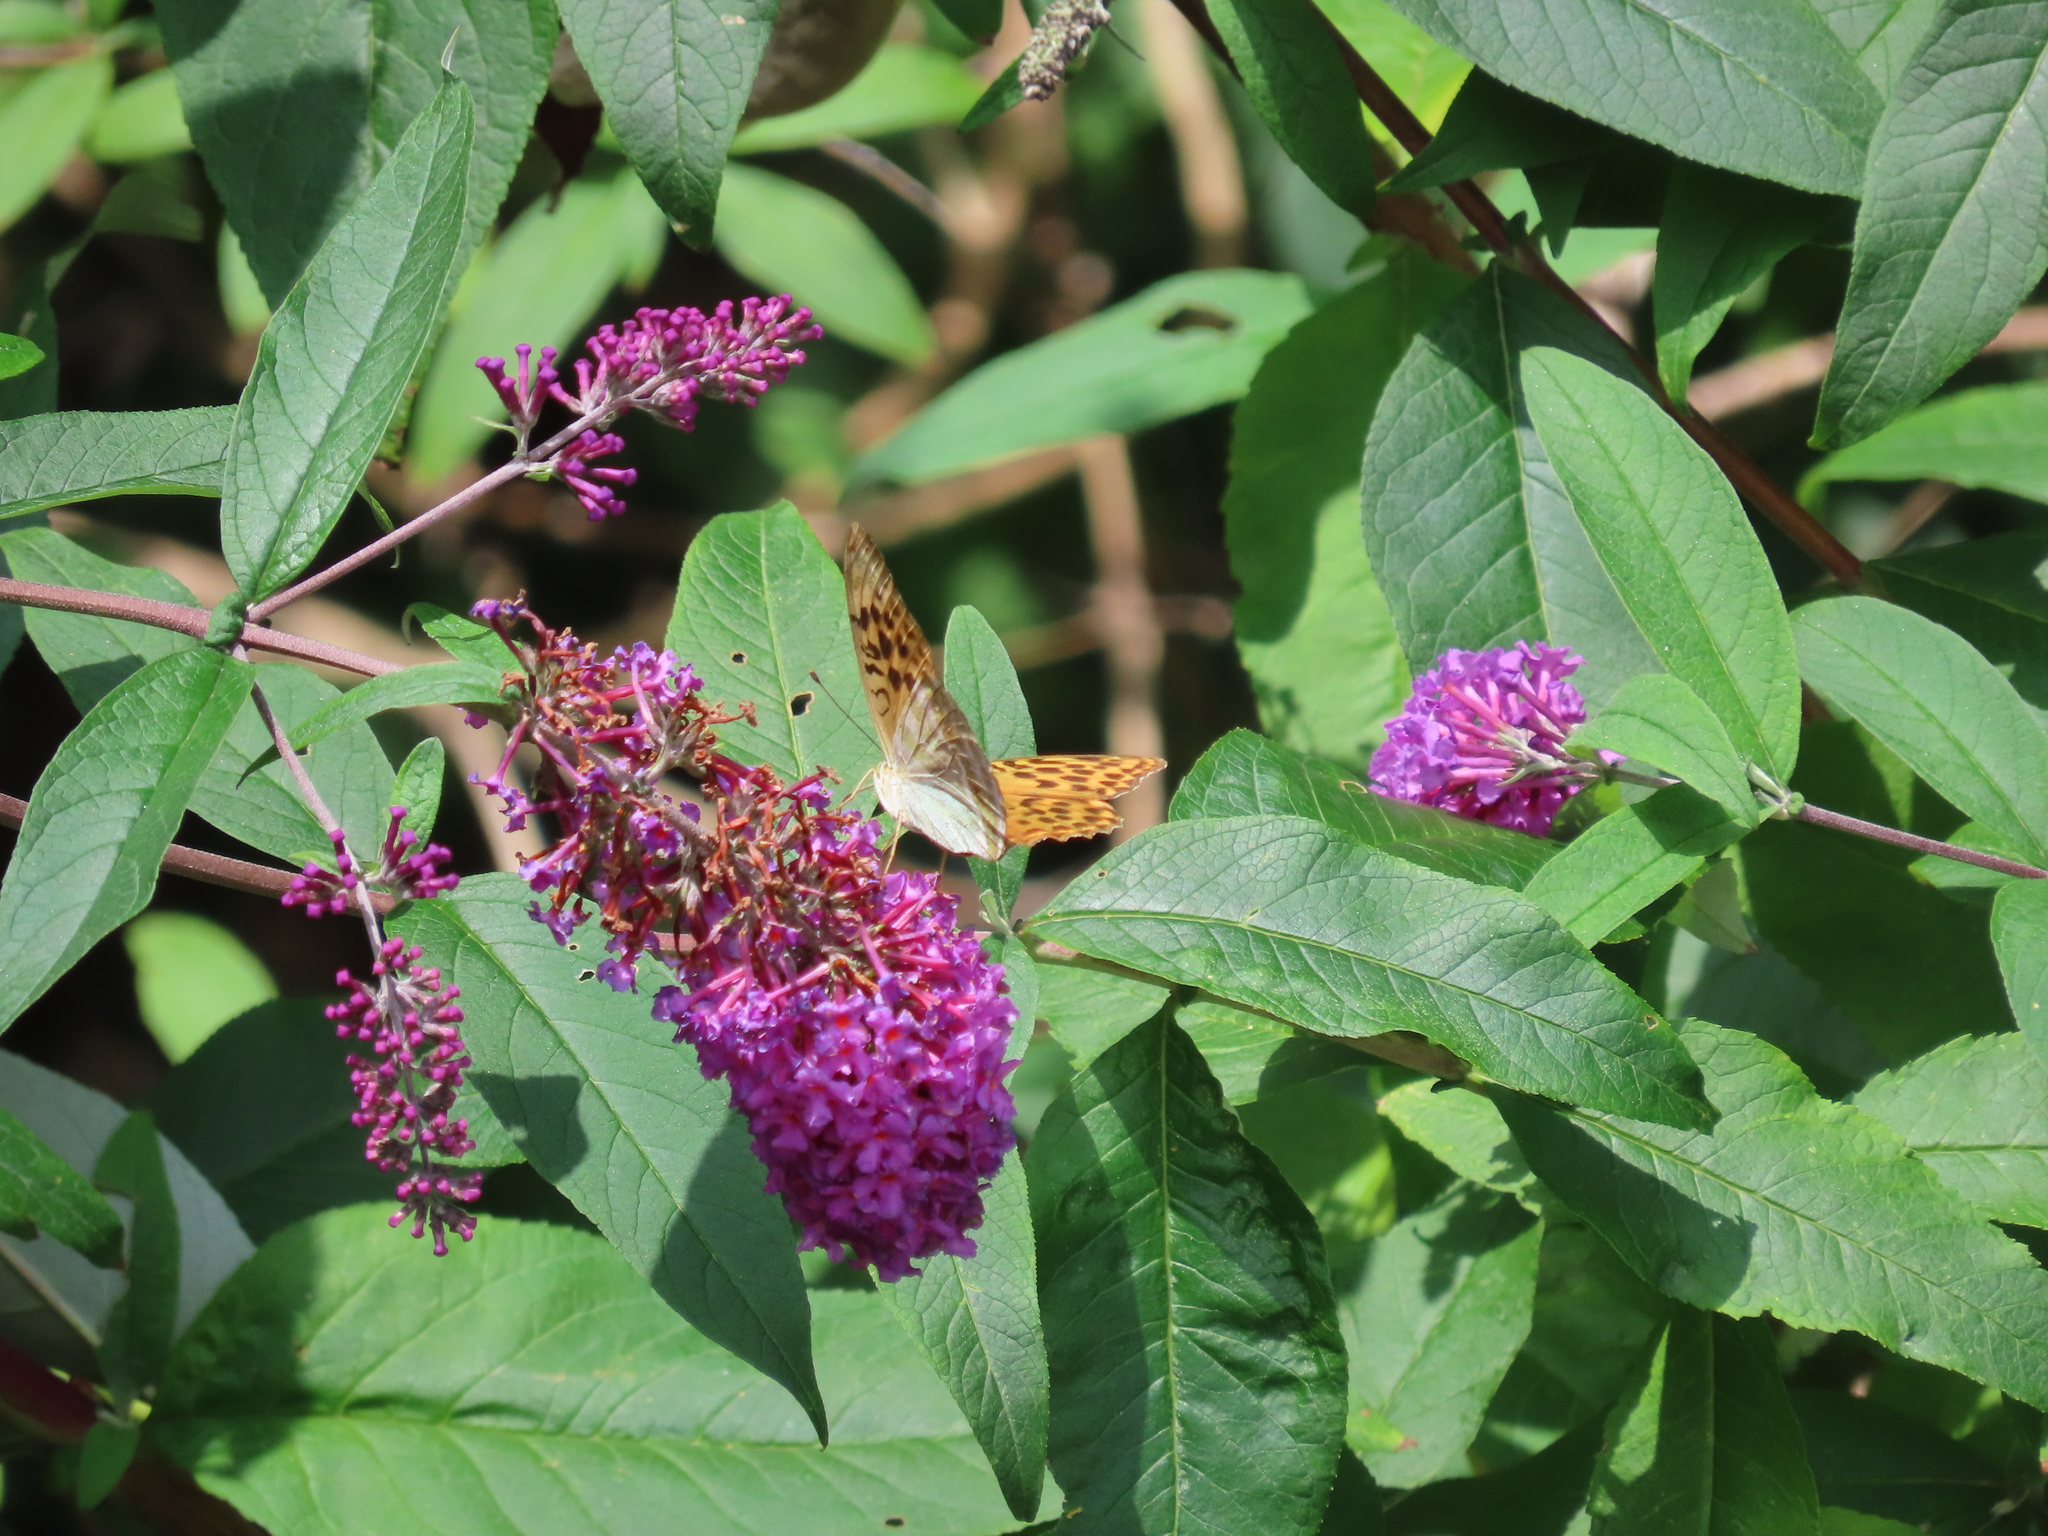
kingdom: Animalia
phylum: Arthropoda
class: Insecta
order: Lepidoptera
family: Nymphalidae
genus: Argynnis
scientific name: Argynnis paphia
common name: Silver-washed fritillary
